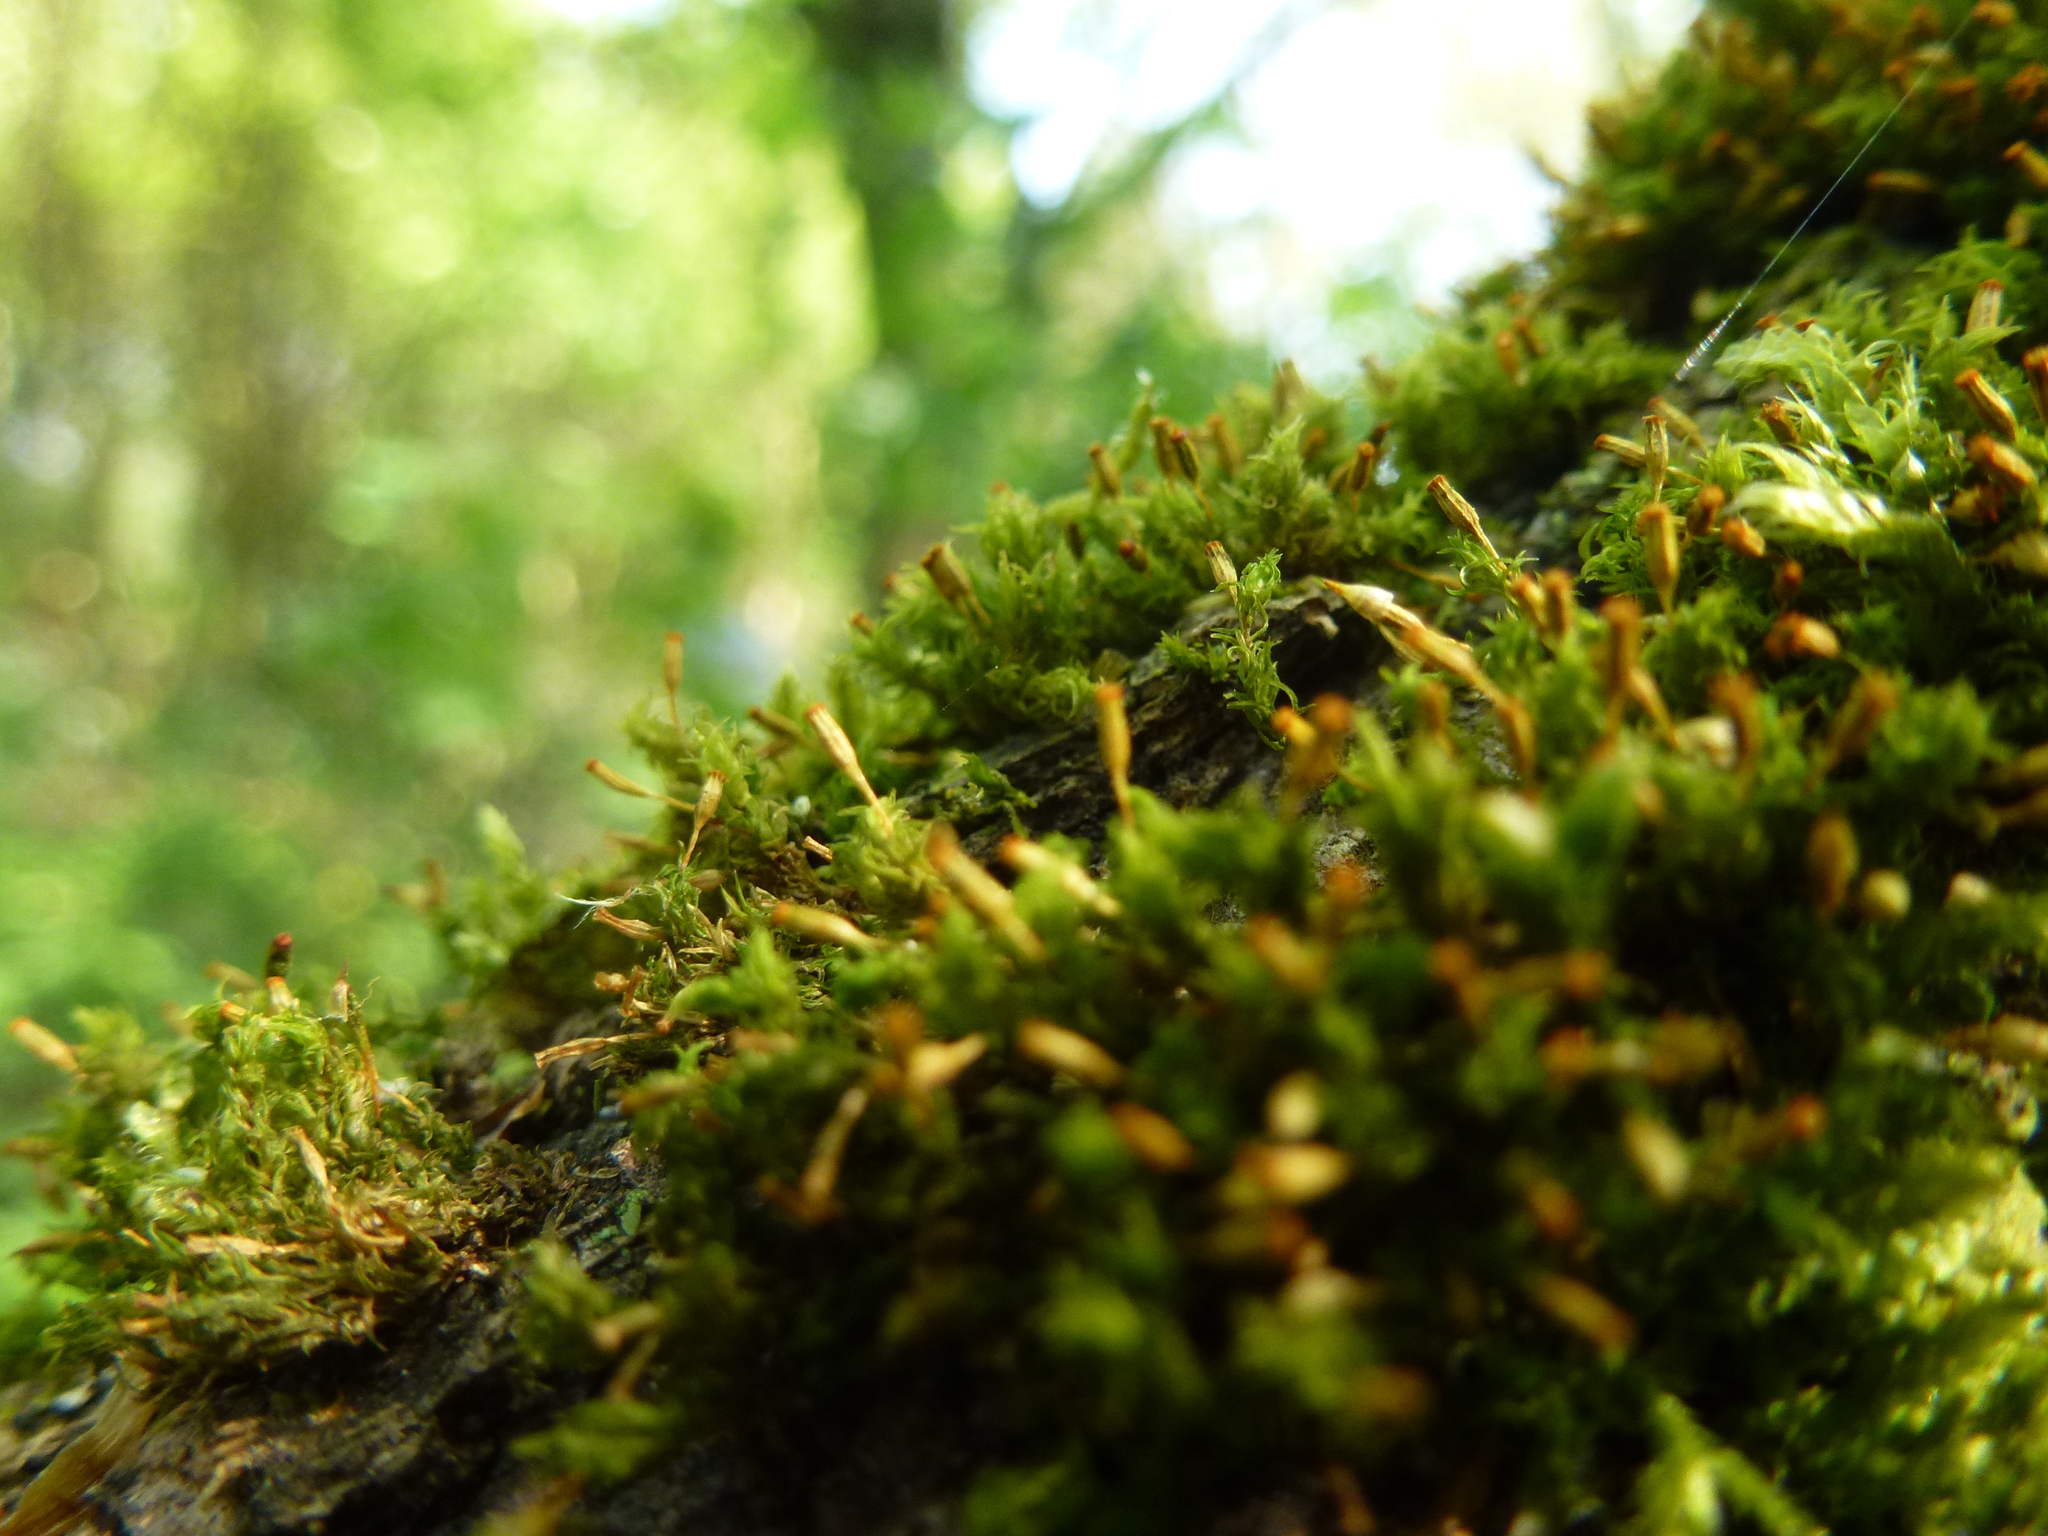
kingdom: Plantae
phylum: Bryophyta
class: Bryopsida
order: Orthotrichales
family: Orthotrichaceae
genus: Orthotrichum
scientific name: Orthotrichum pulchellum
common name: Elegant bristle-moss
